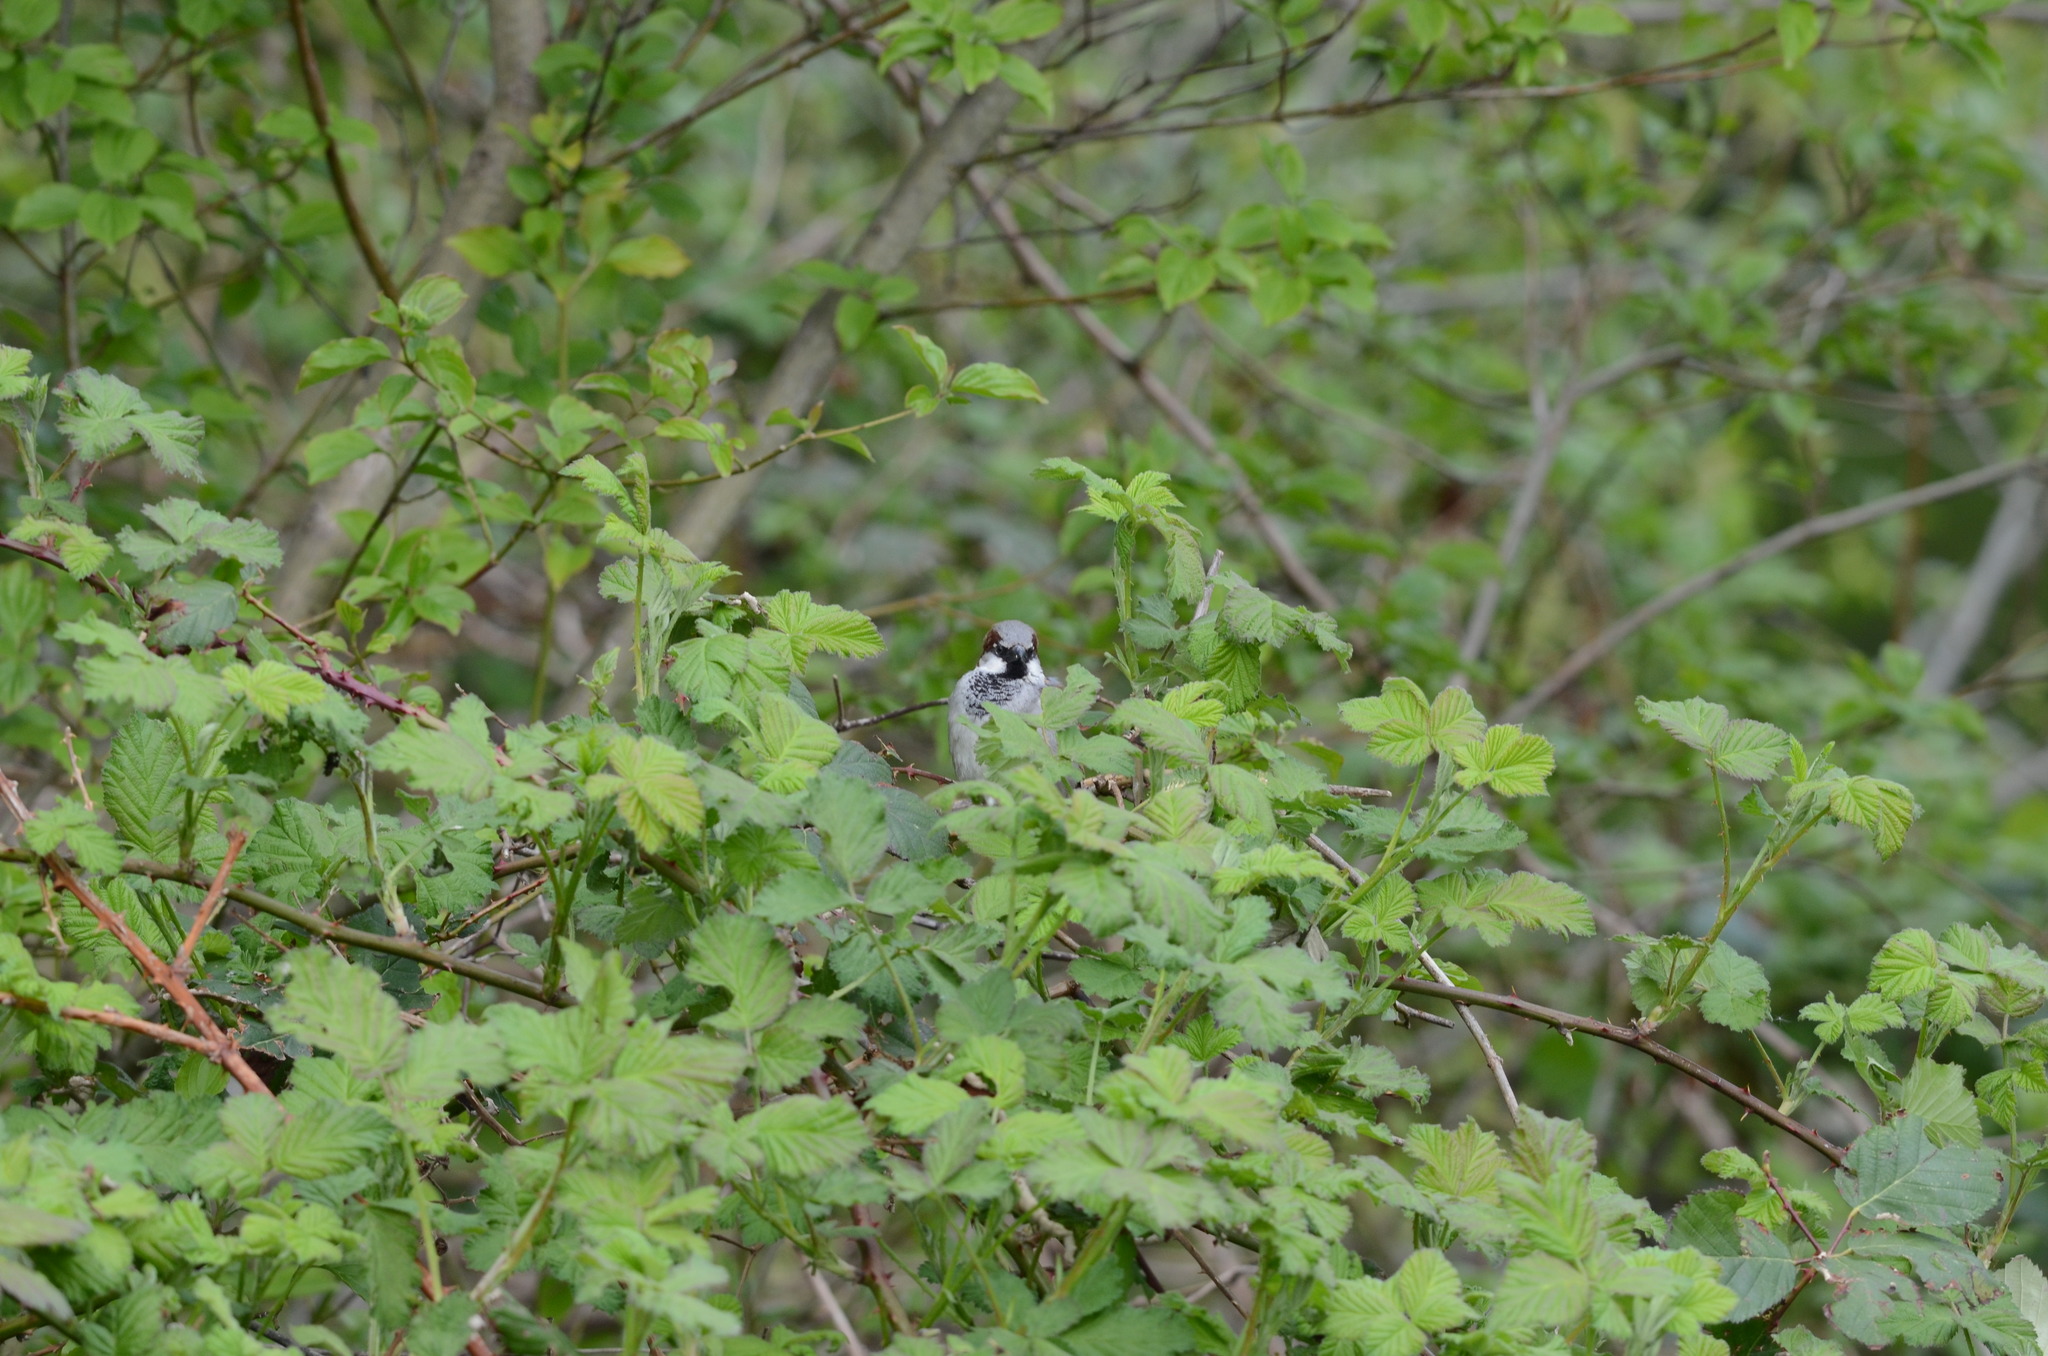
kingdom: Animalia
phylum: Chordata
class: Aves
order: Passeriformes
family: Passeridae
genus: Passer
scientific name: Passer domesticus
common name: House sparrow
